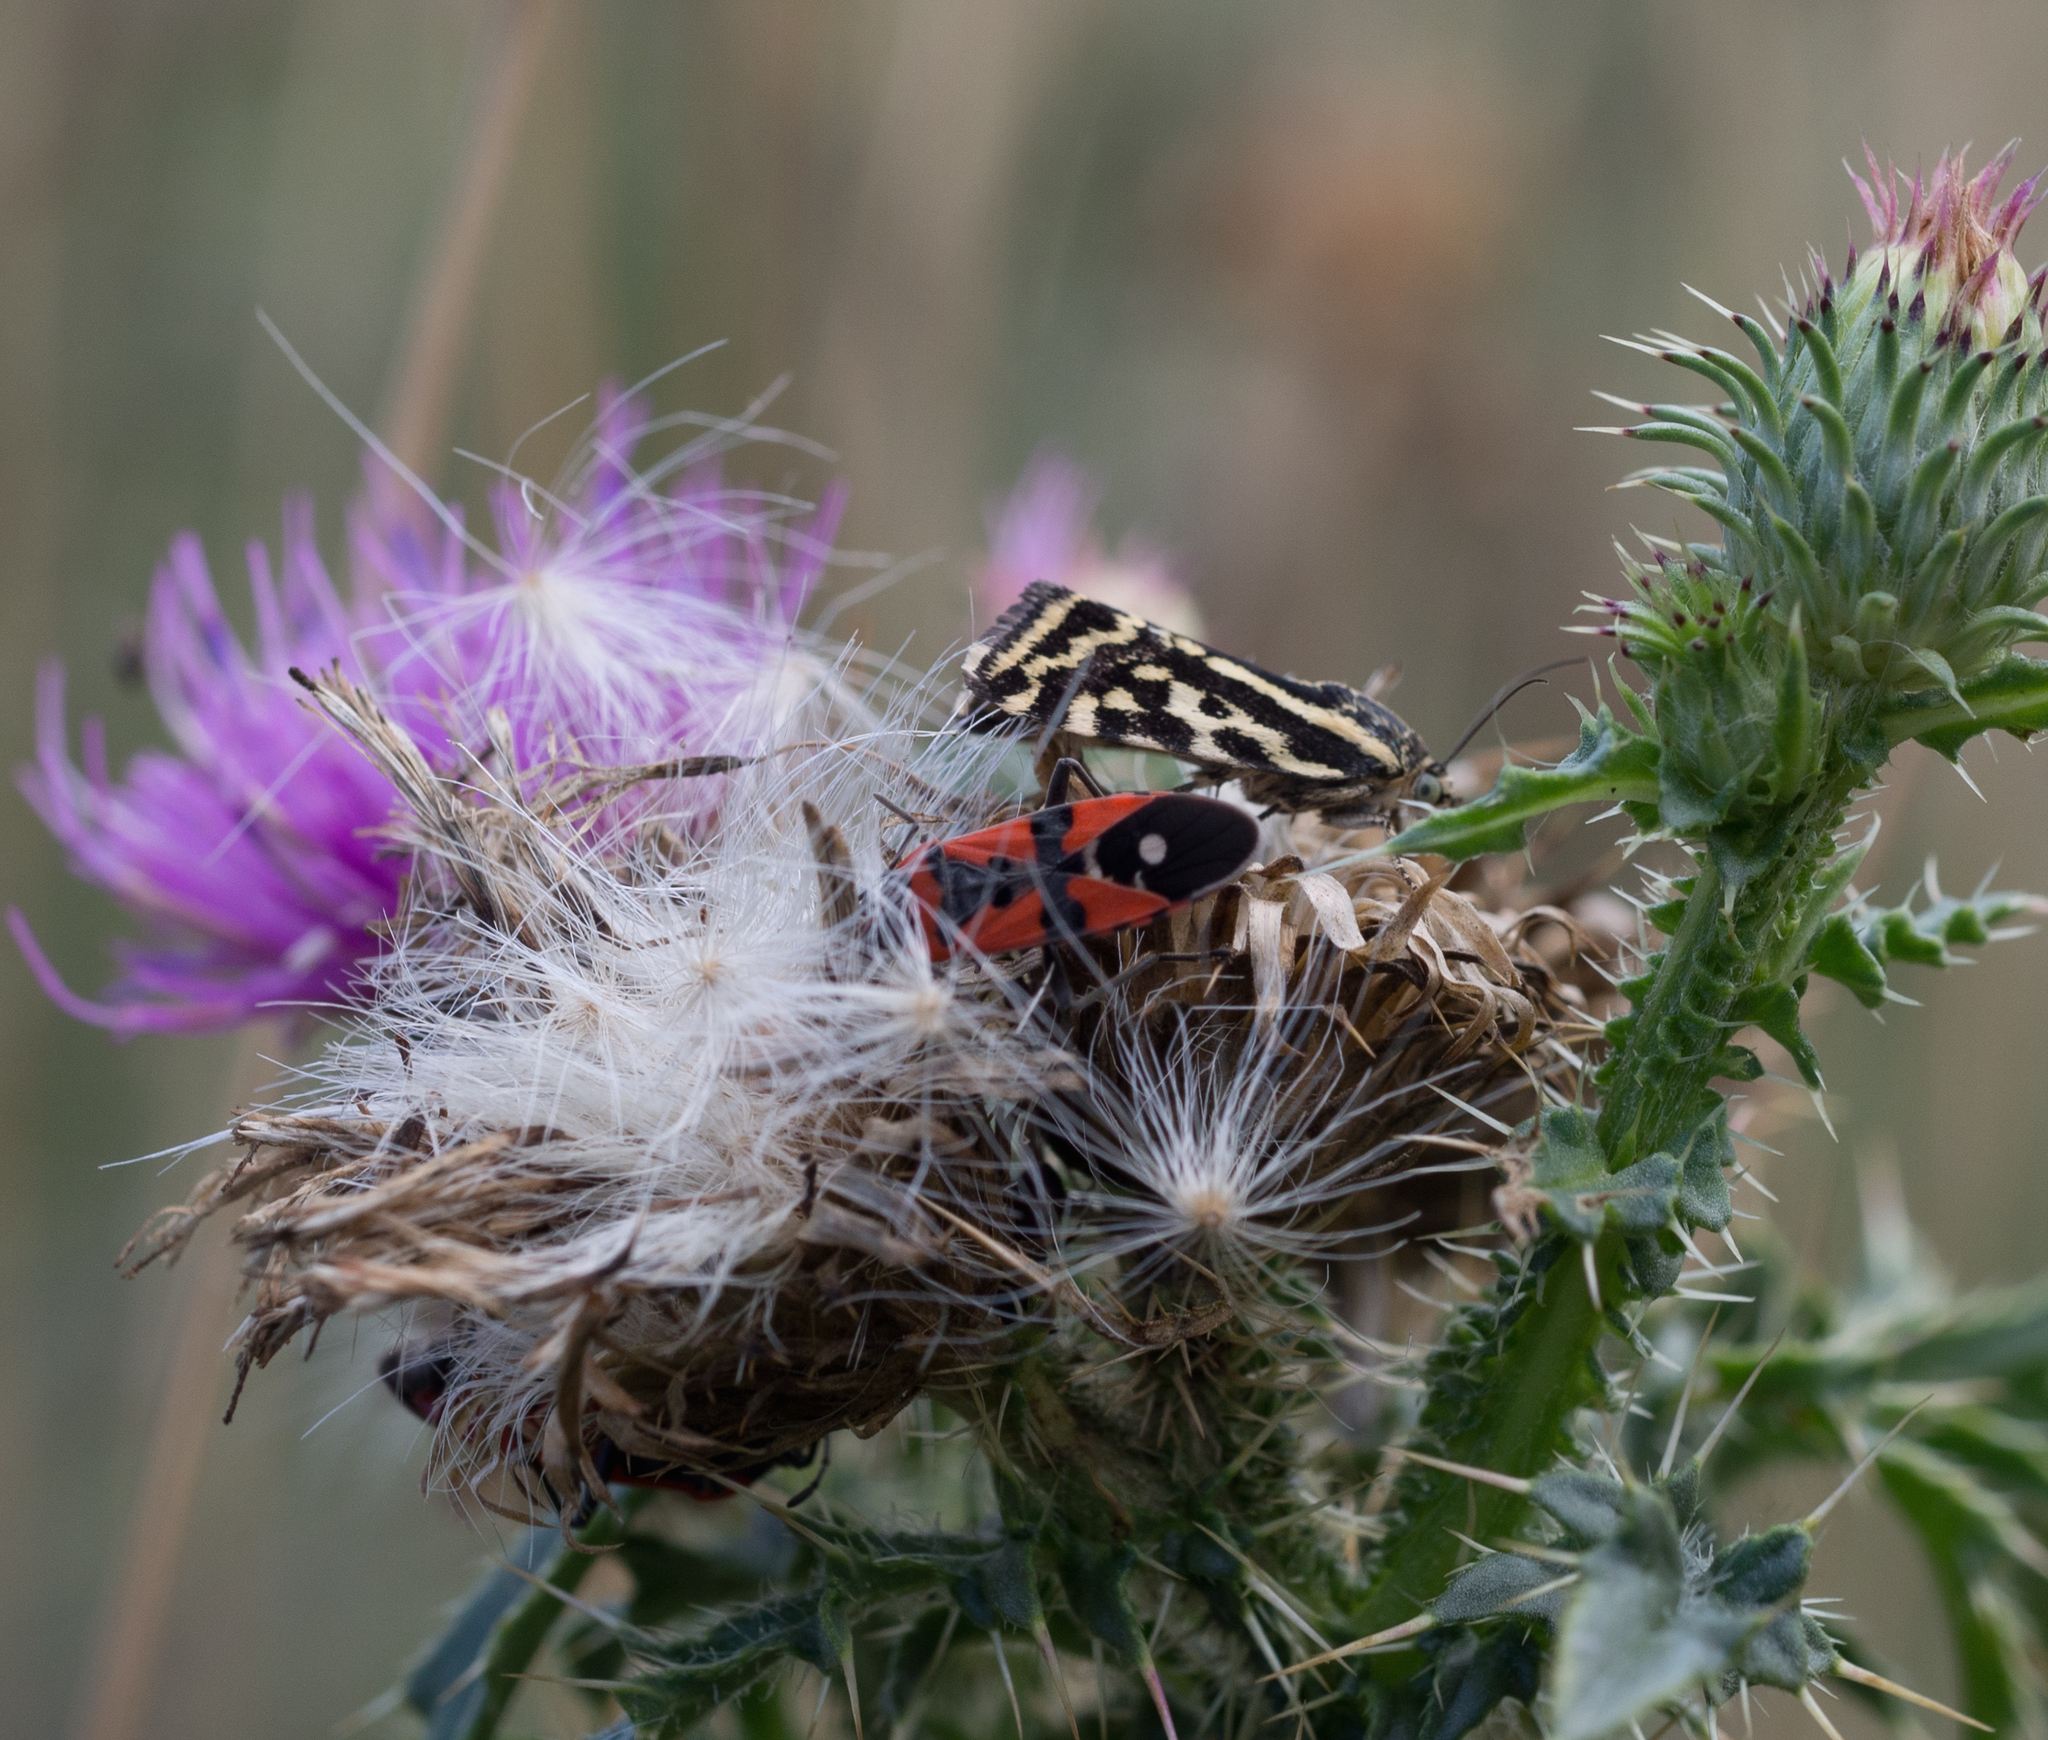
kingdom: Animalia
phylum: Arthropoda
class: Insecta
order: Lepidoptera
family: Noctuidae
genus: Acontia
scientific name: Acontia trabealis
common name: Spotted sulphur
